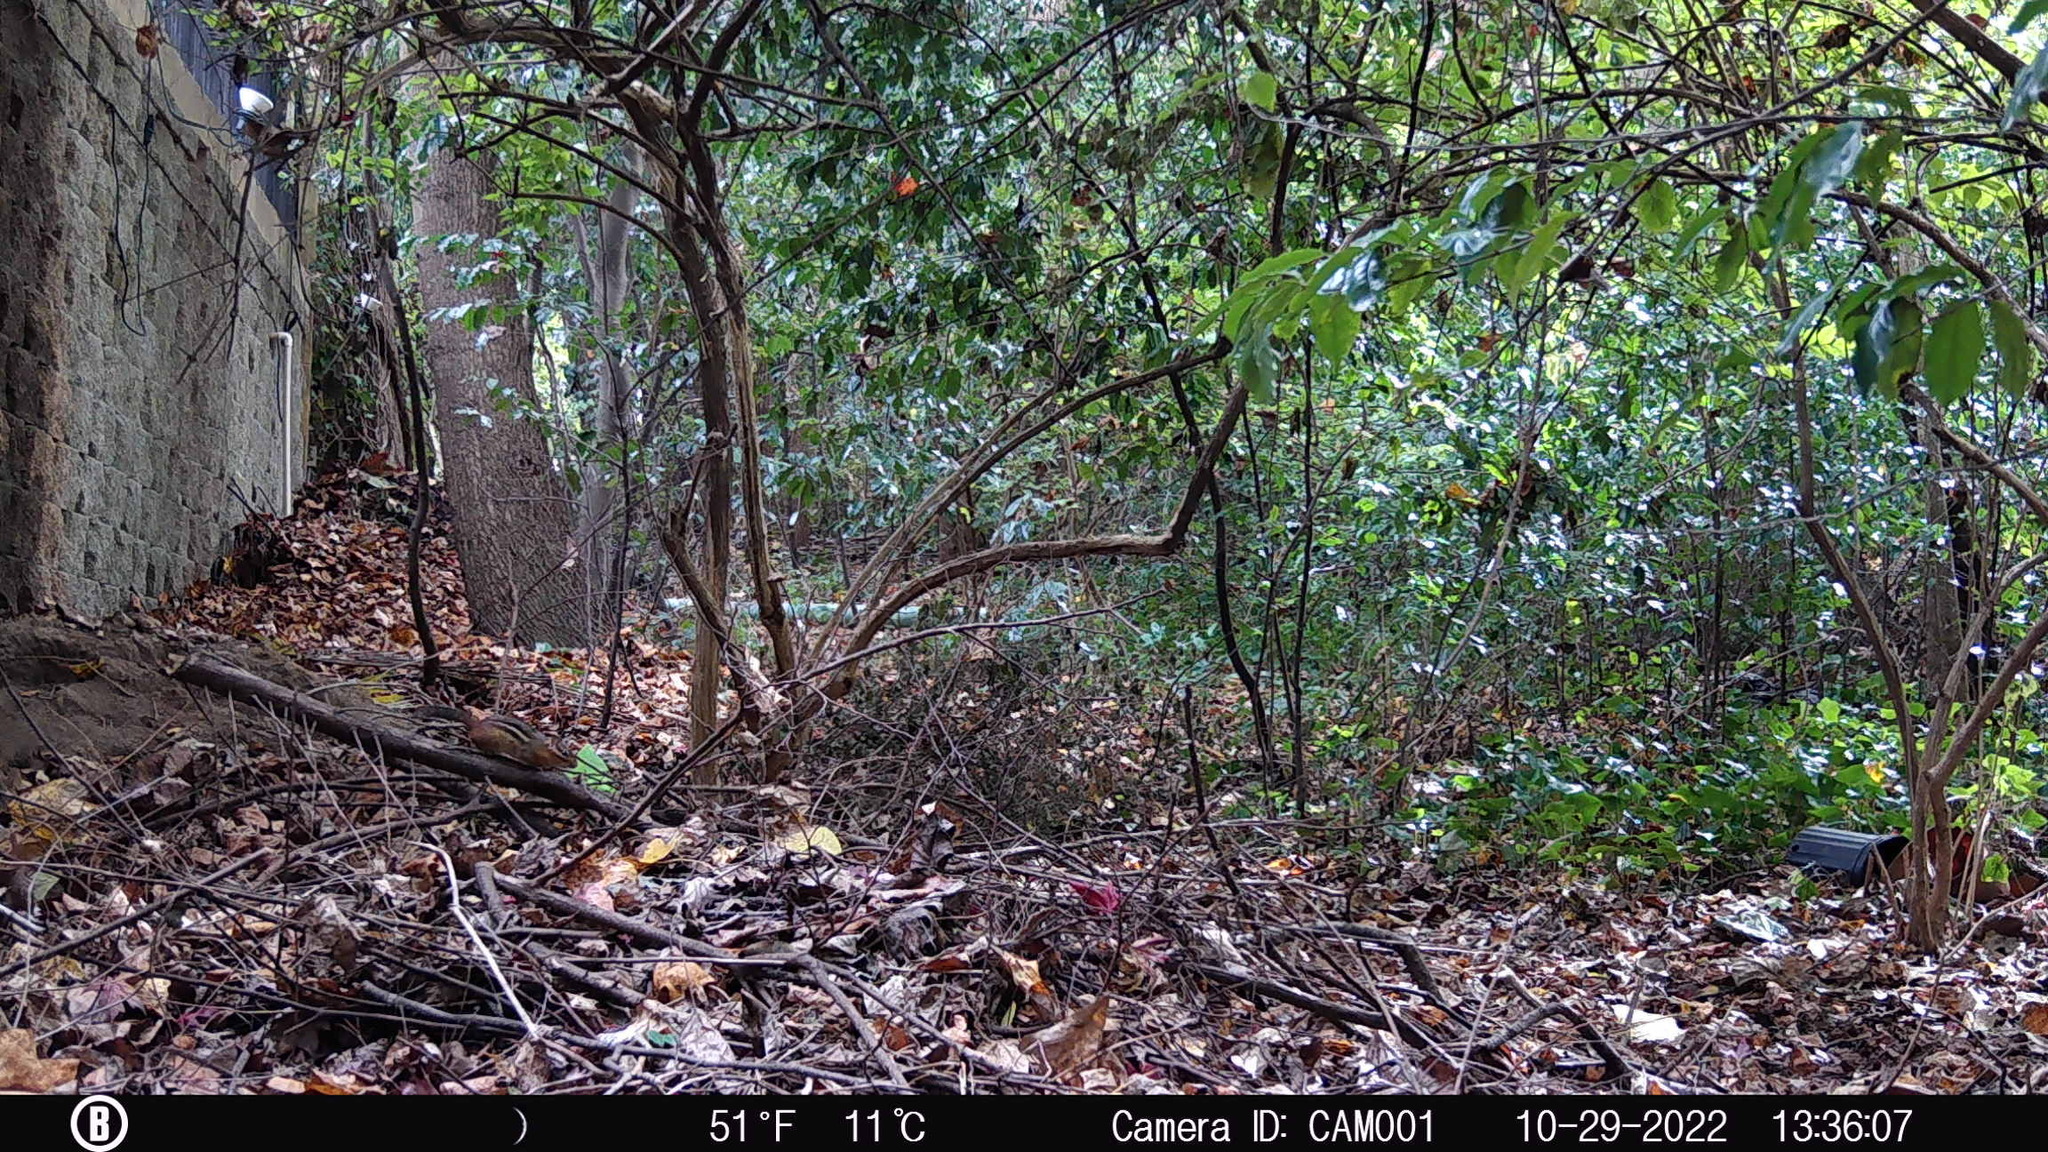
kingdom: Animalia
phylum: Chordata
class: Mammalia
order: Rodentia
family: Sciuridae
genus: Tamias
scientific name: Tamias striatus
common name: Eastern chipmunk
